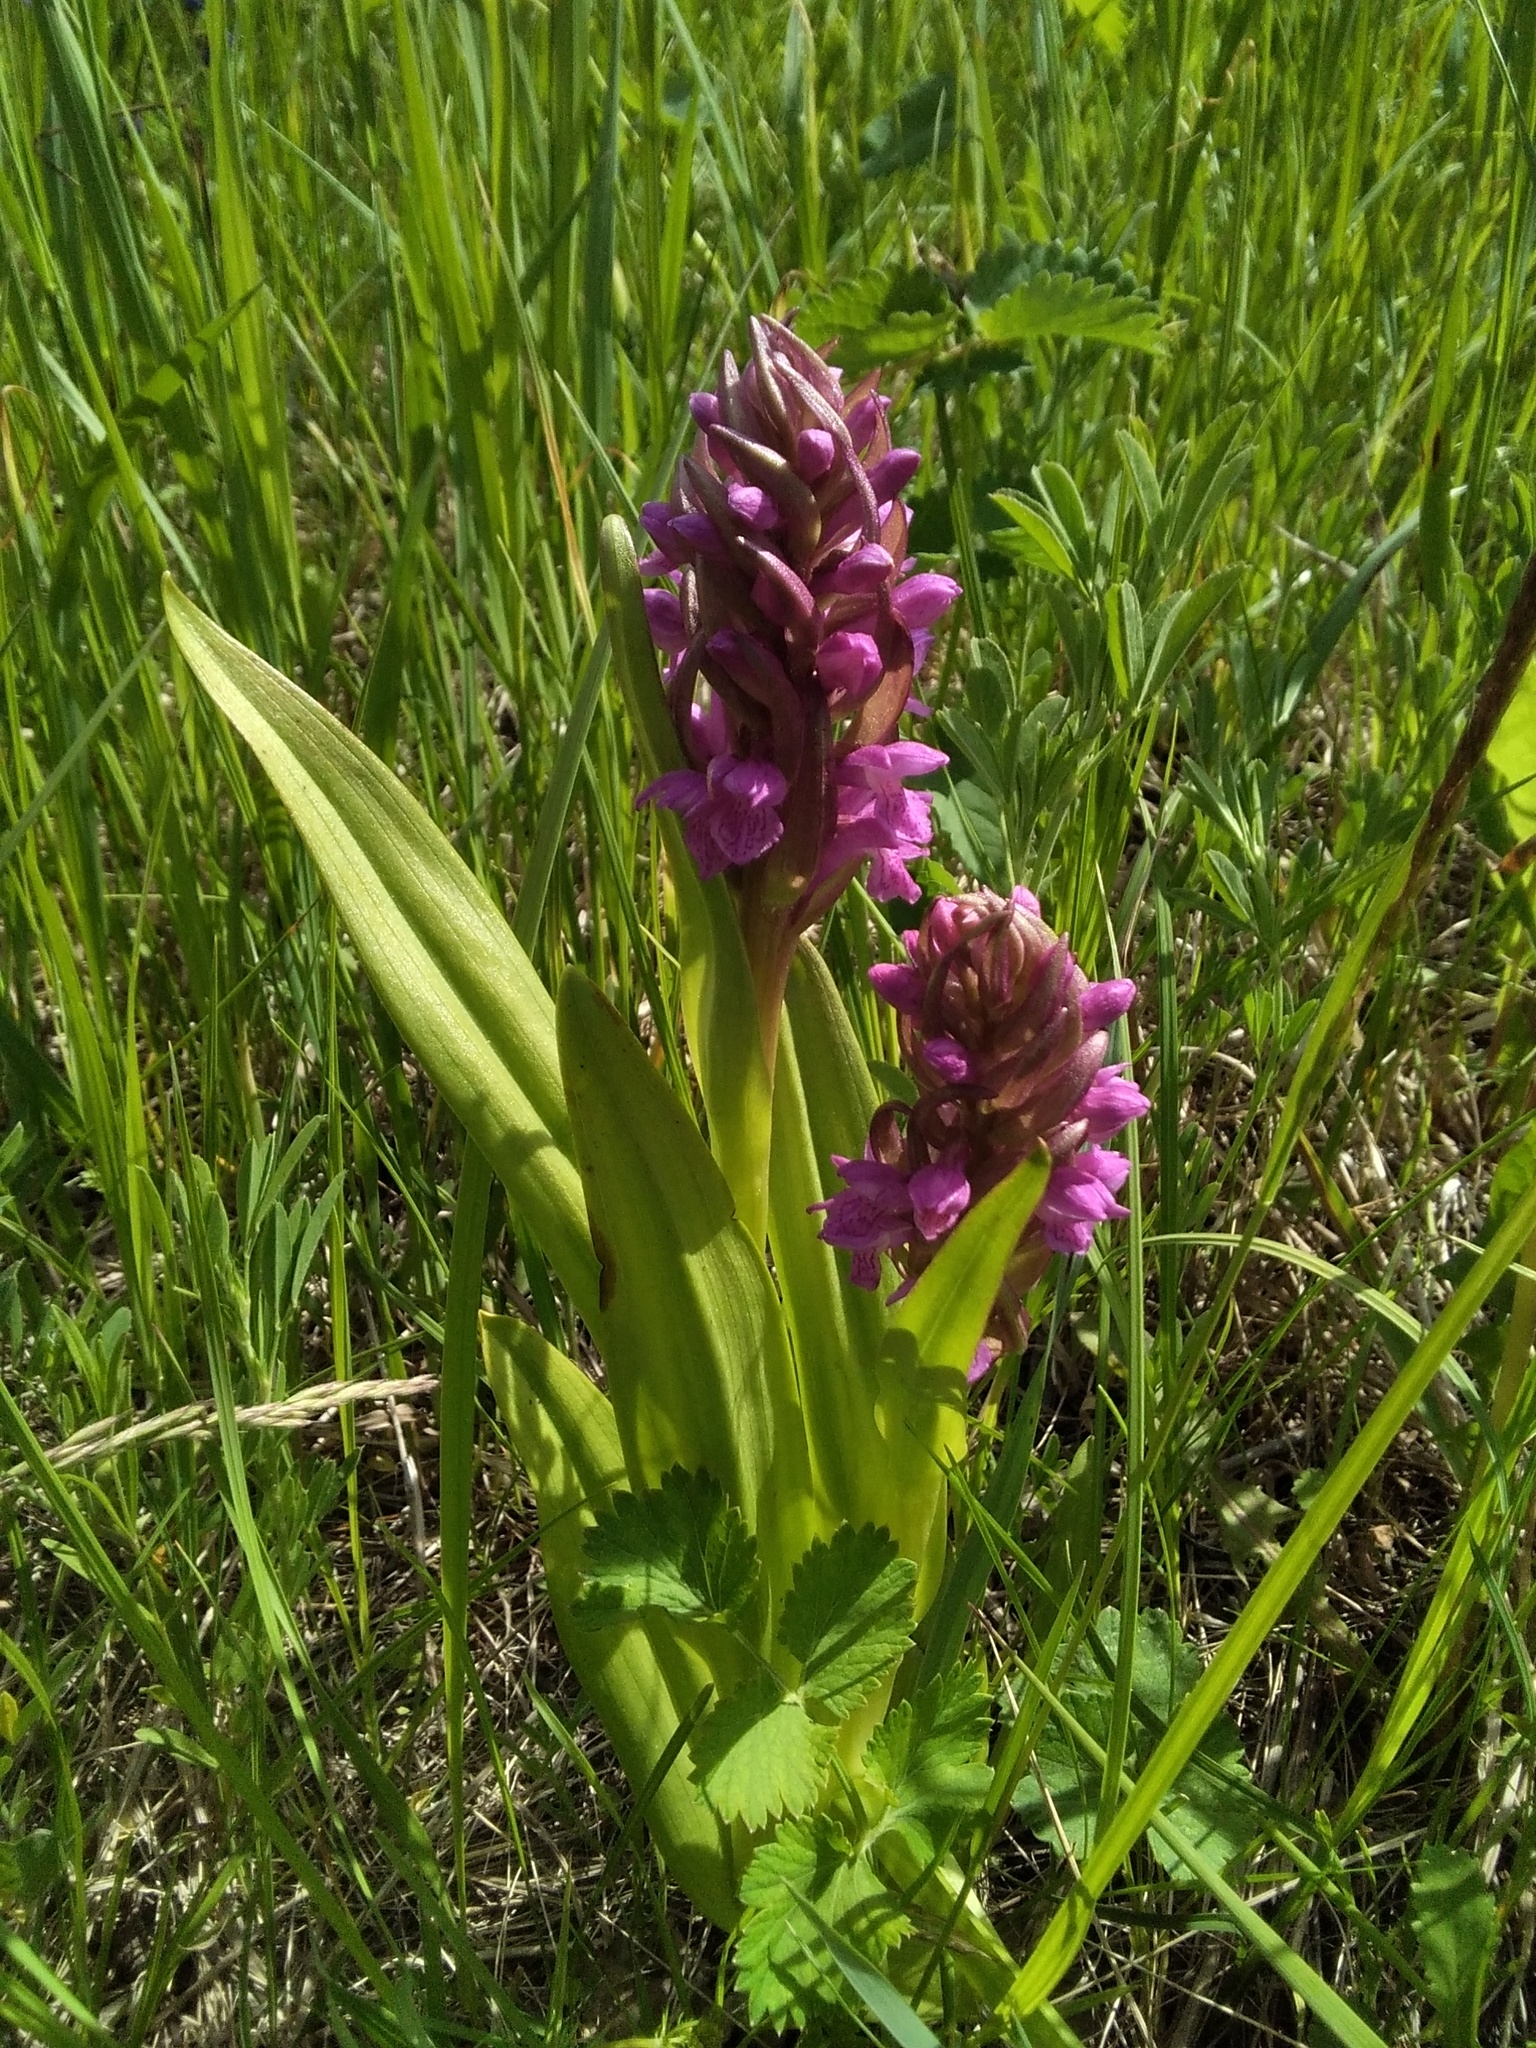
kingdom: Plantae
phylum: Tracheophyta
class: Liliopsida
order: Asparagales
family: Orchidaceae
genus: Dactylorhiza
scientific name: Dactylorhiza incarnata
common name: Early marsh-orchid
